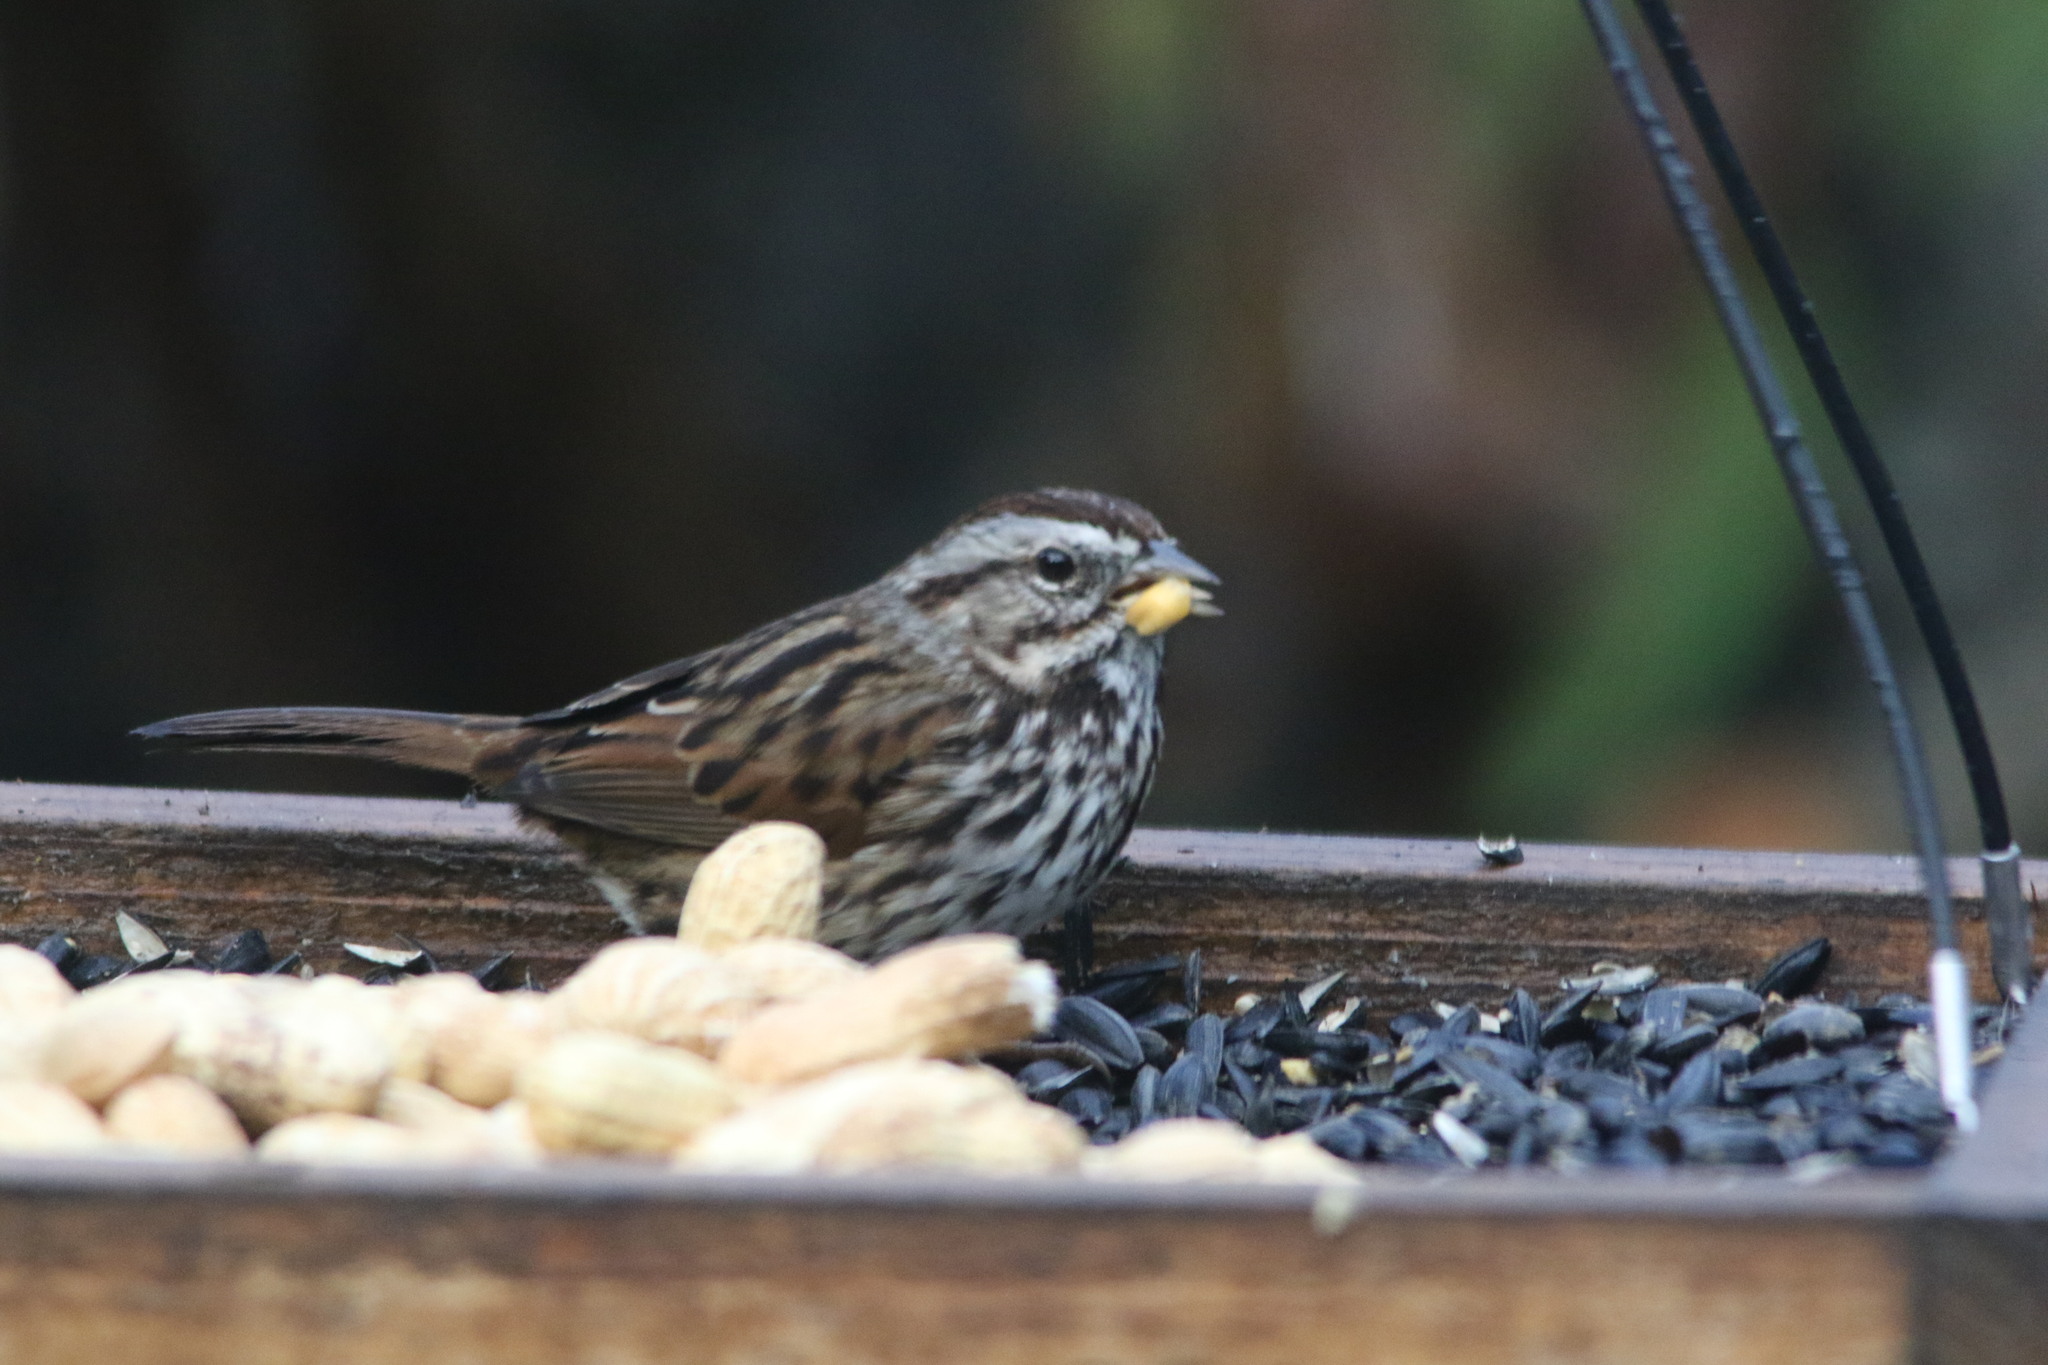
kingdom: Animalia
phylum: Chordata
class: Aves
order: Passeriformes
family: Passerellidae
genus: Melospiza
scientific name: Melospiza melodia
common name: Song sparrow
